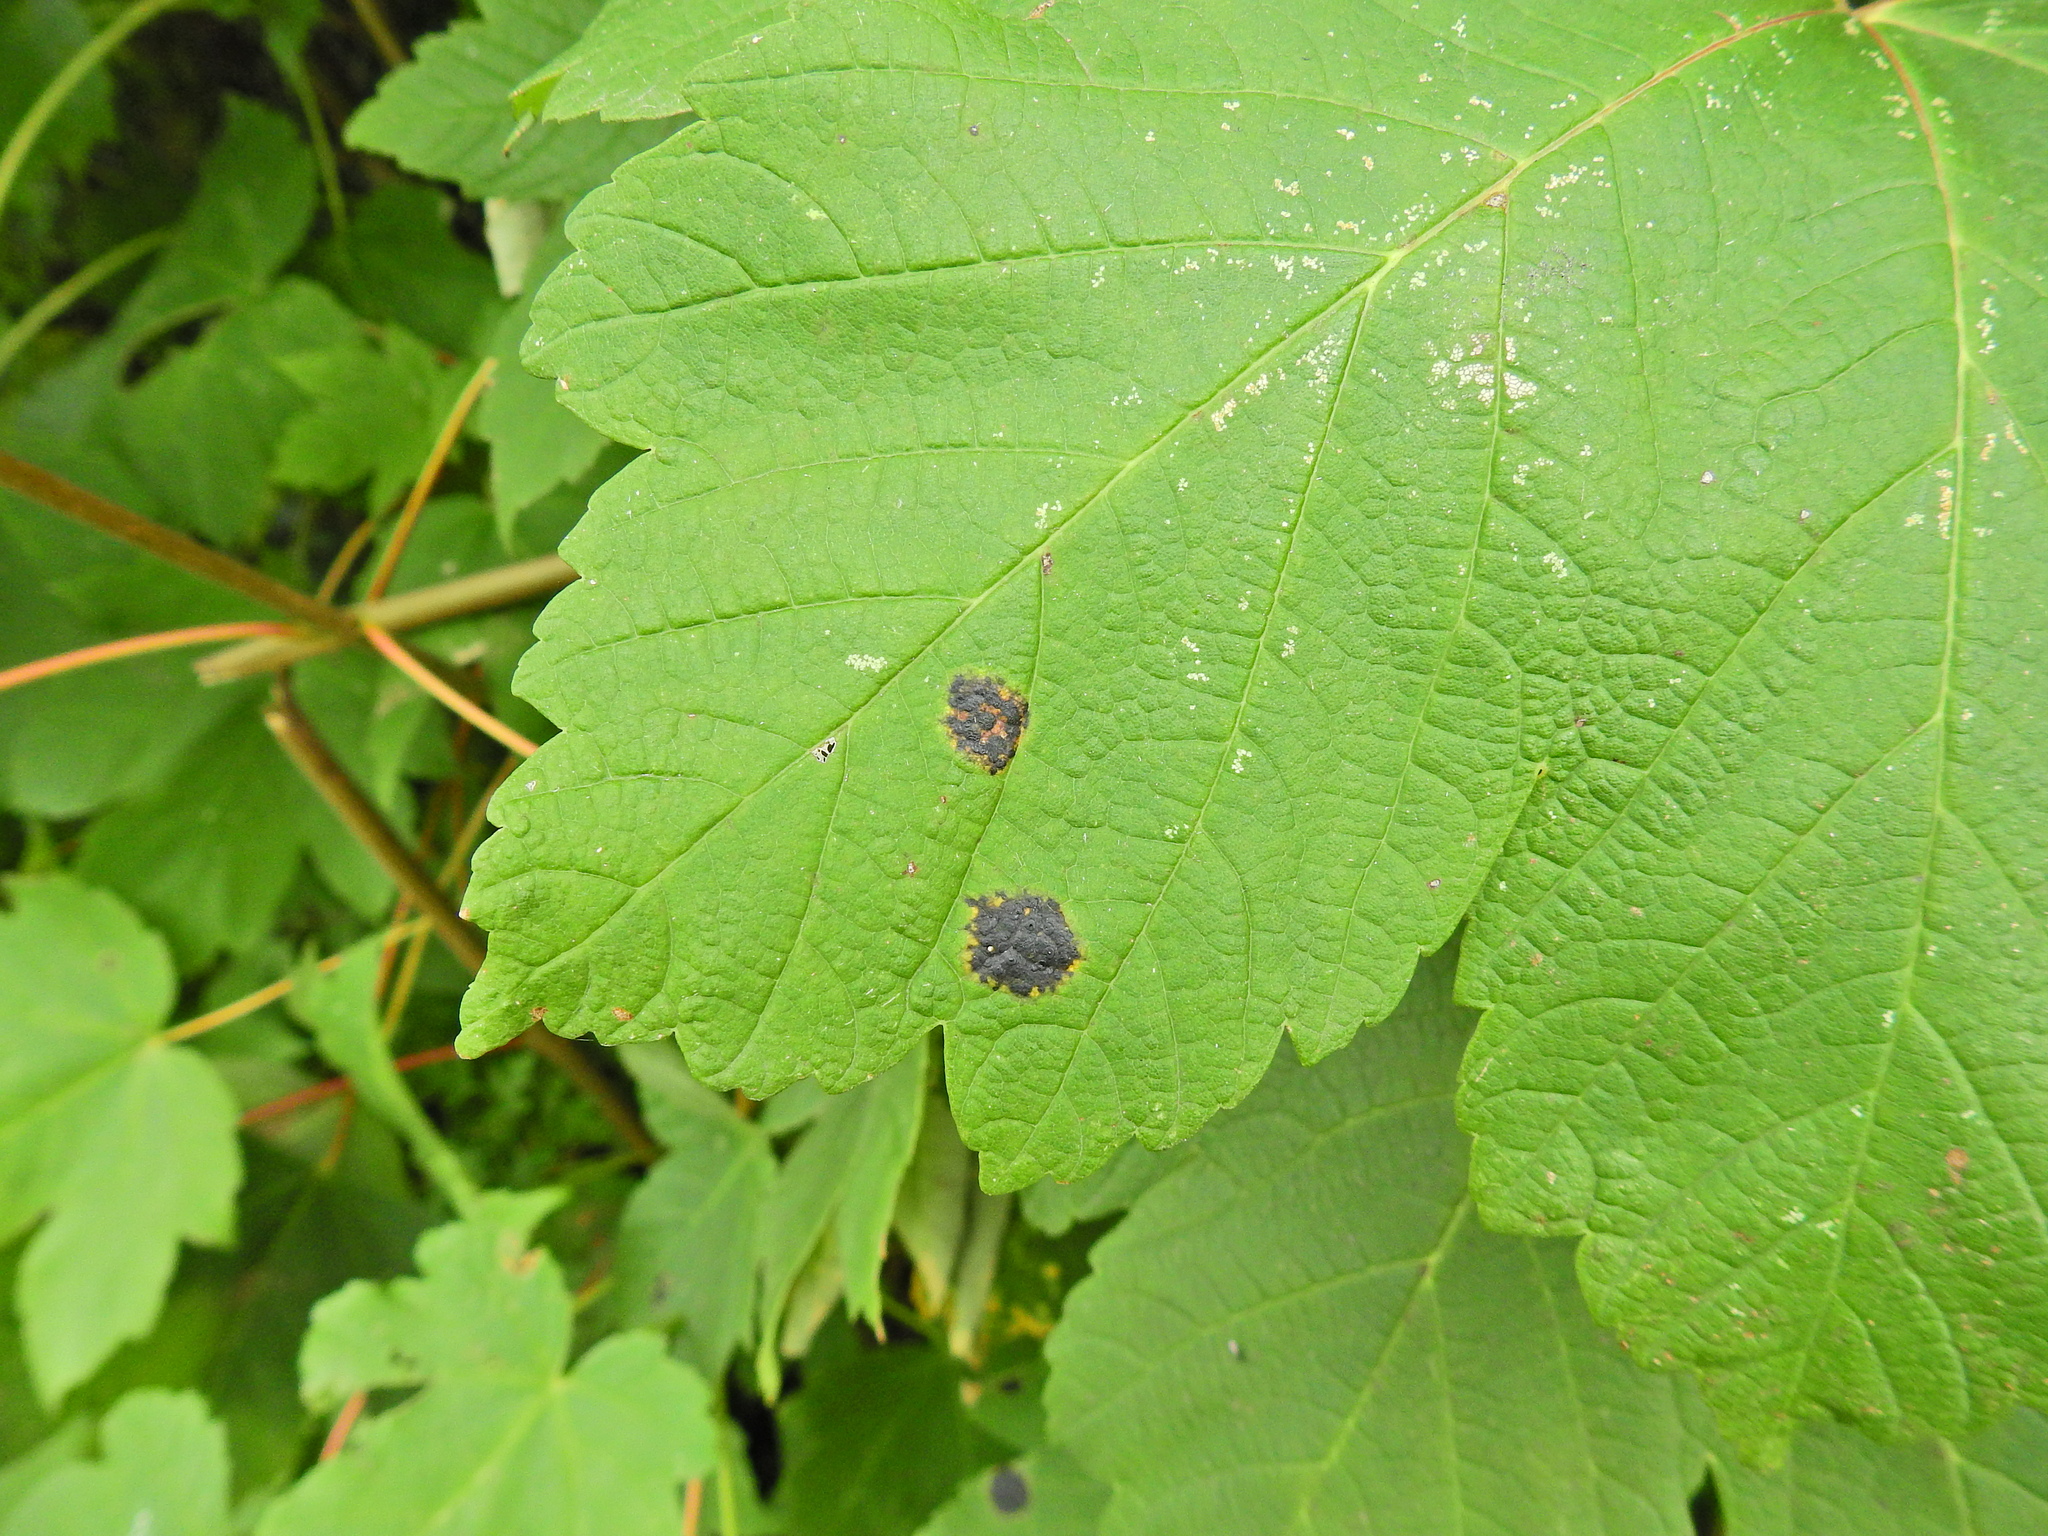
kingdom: Fungi
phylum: Ascomycota
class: Leotiomycetes
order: Rhytismatales
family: Rhytismataceae
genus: Rhytisma
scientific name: Rhytisma acerinum
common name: European tar spot
